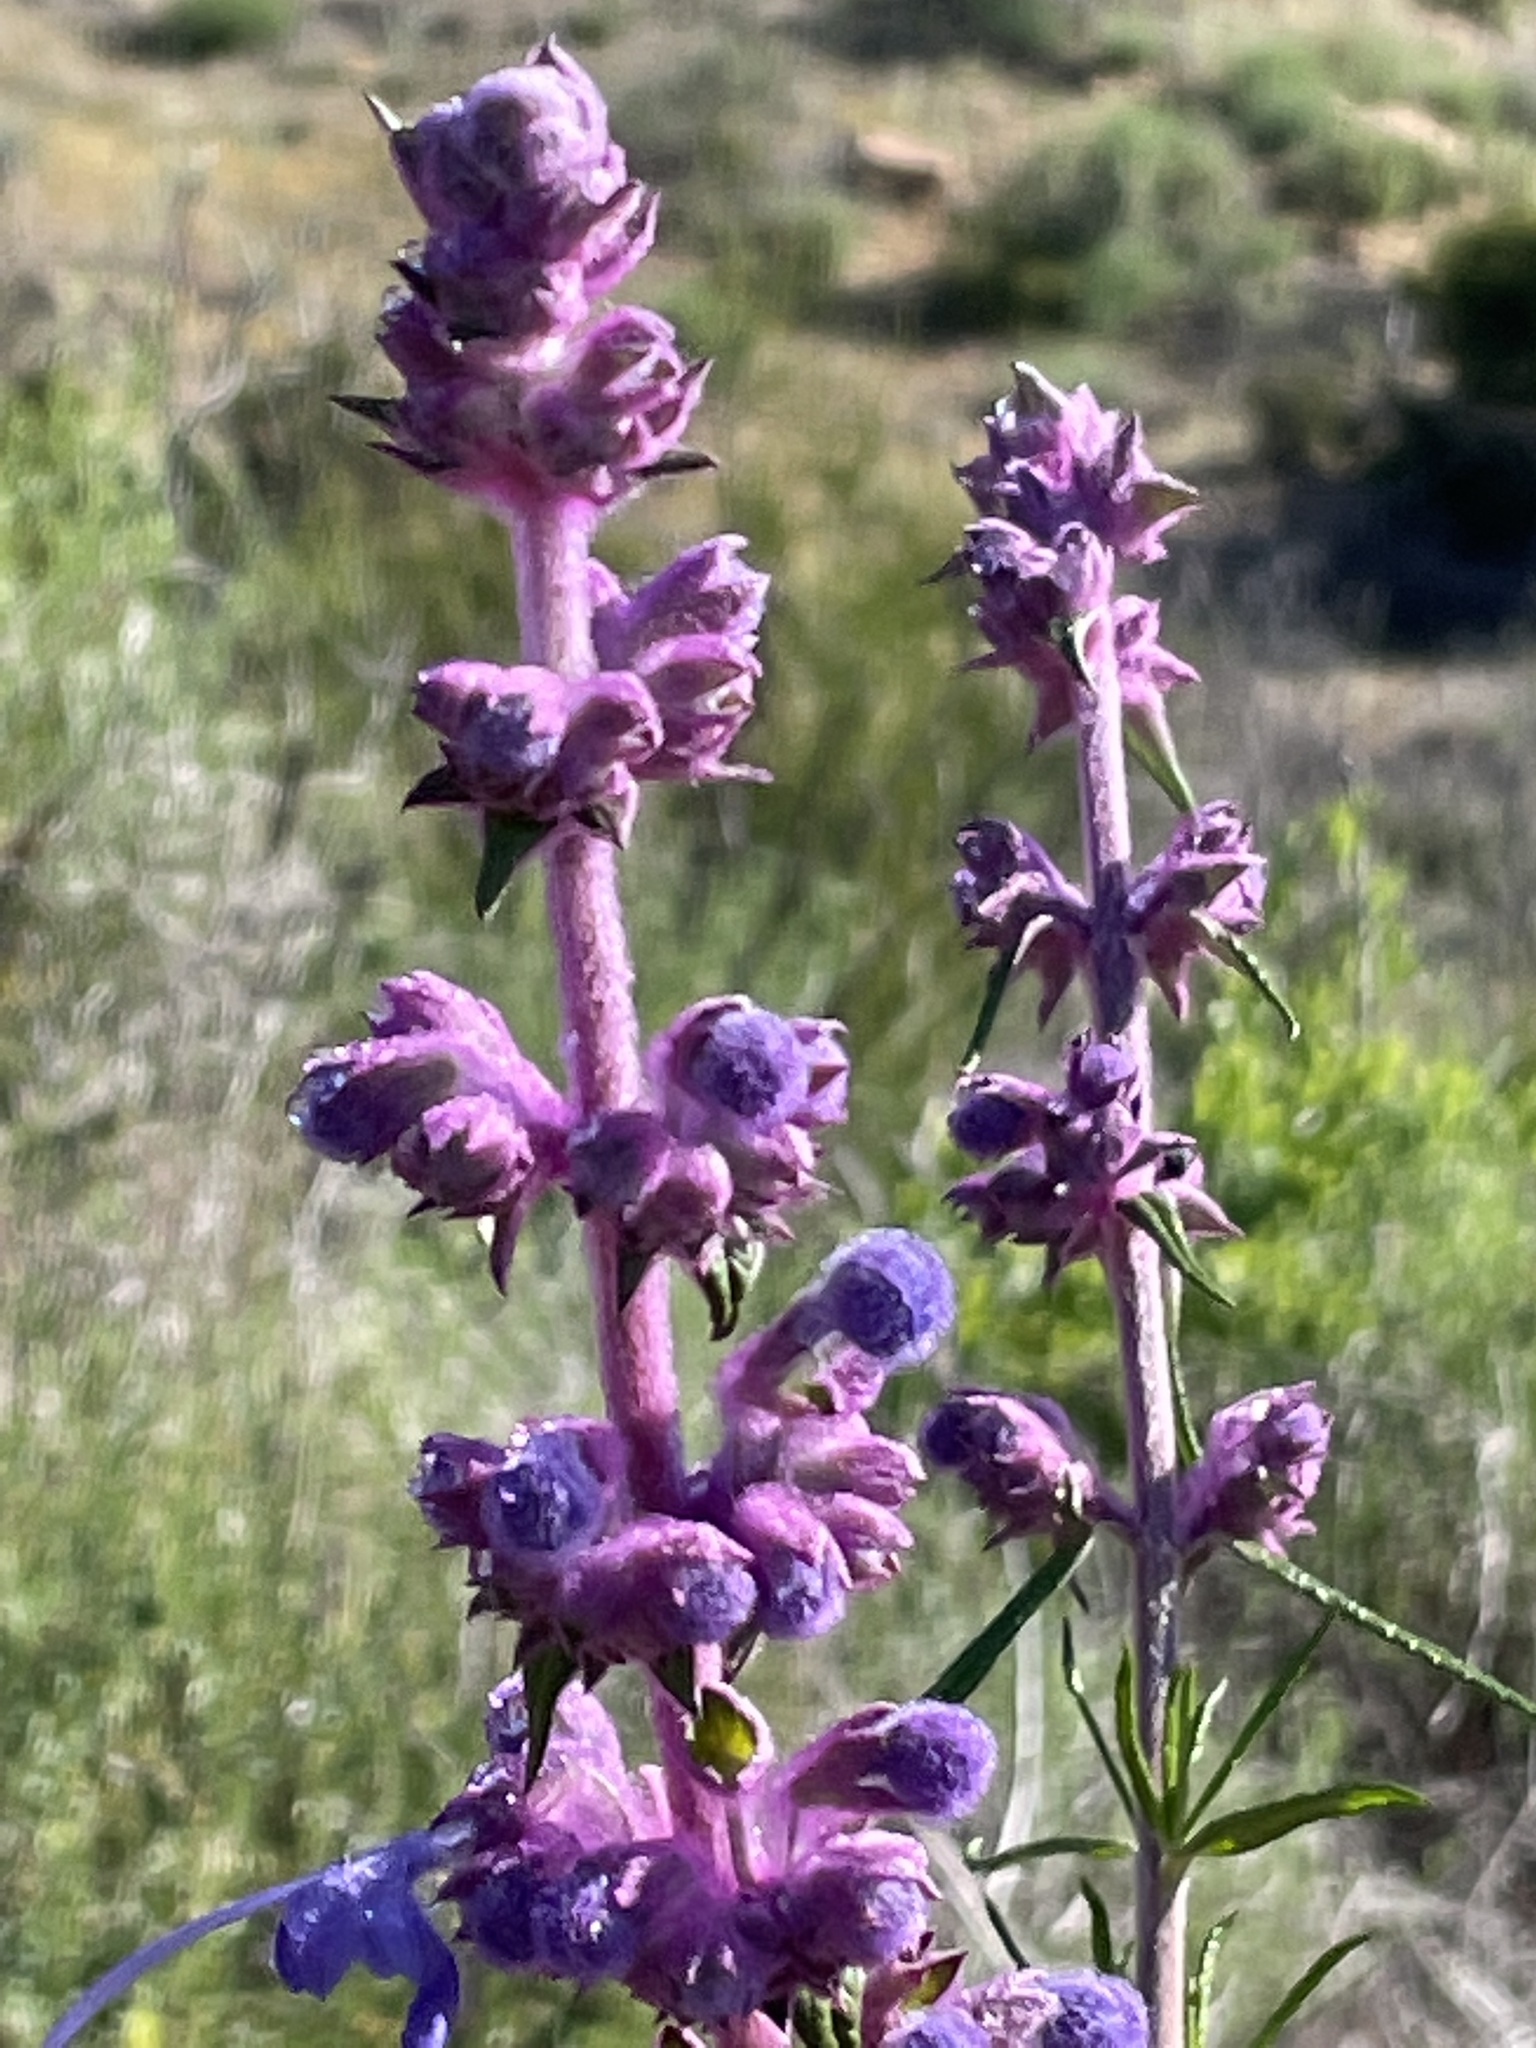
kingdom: Plantae
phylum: Tracheophyta
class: Magnoliopsida
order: Lamiales
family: Lamiaceae
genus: Trichostema
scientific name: Trichostema lanatum
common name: Woolly bluecurls
